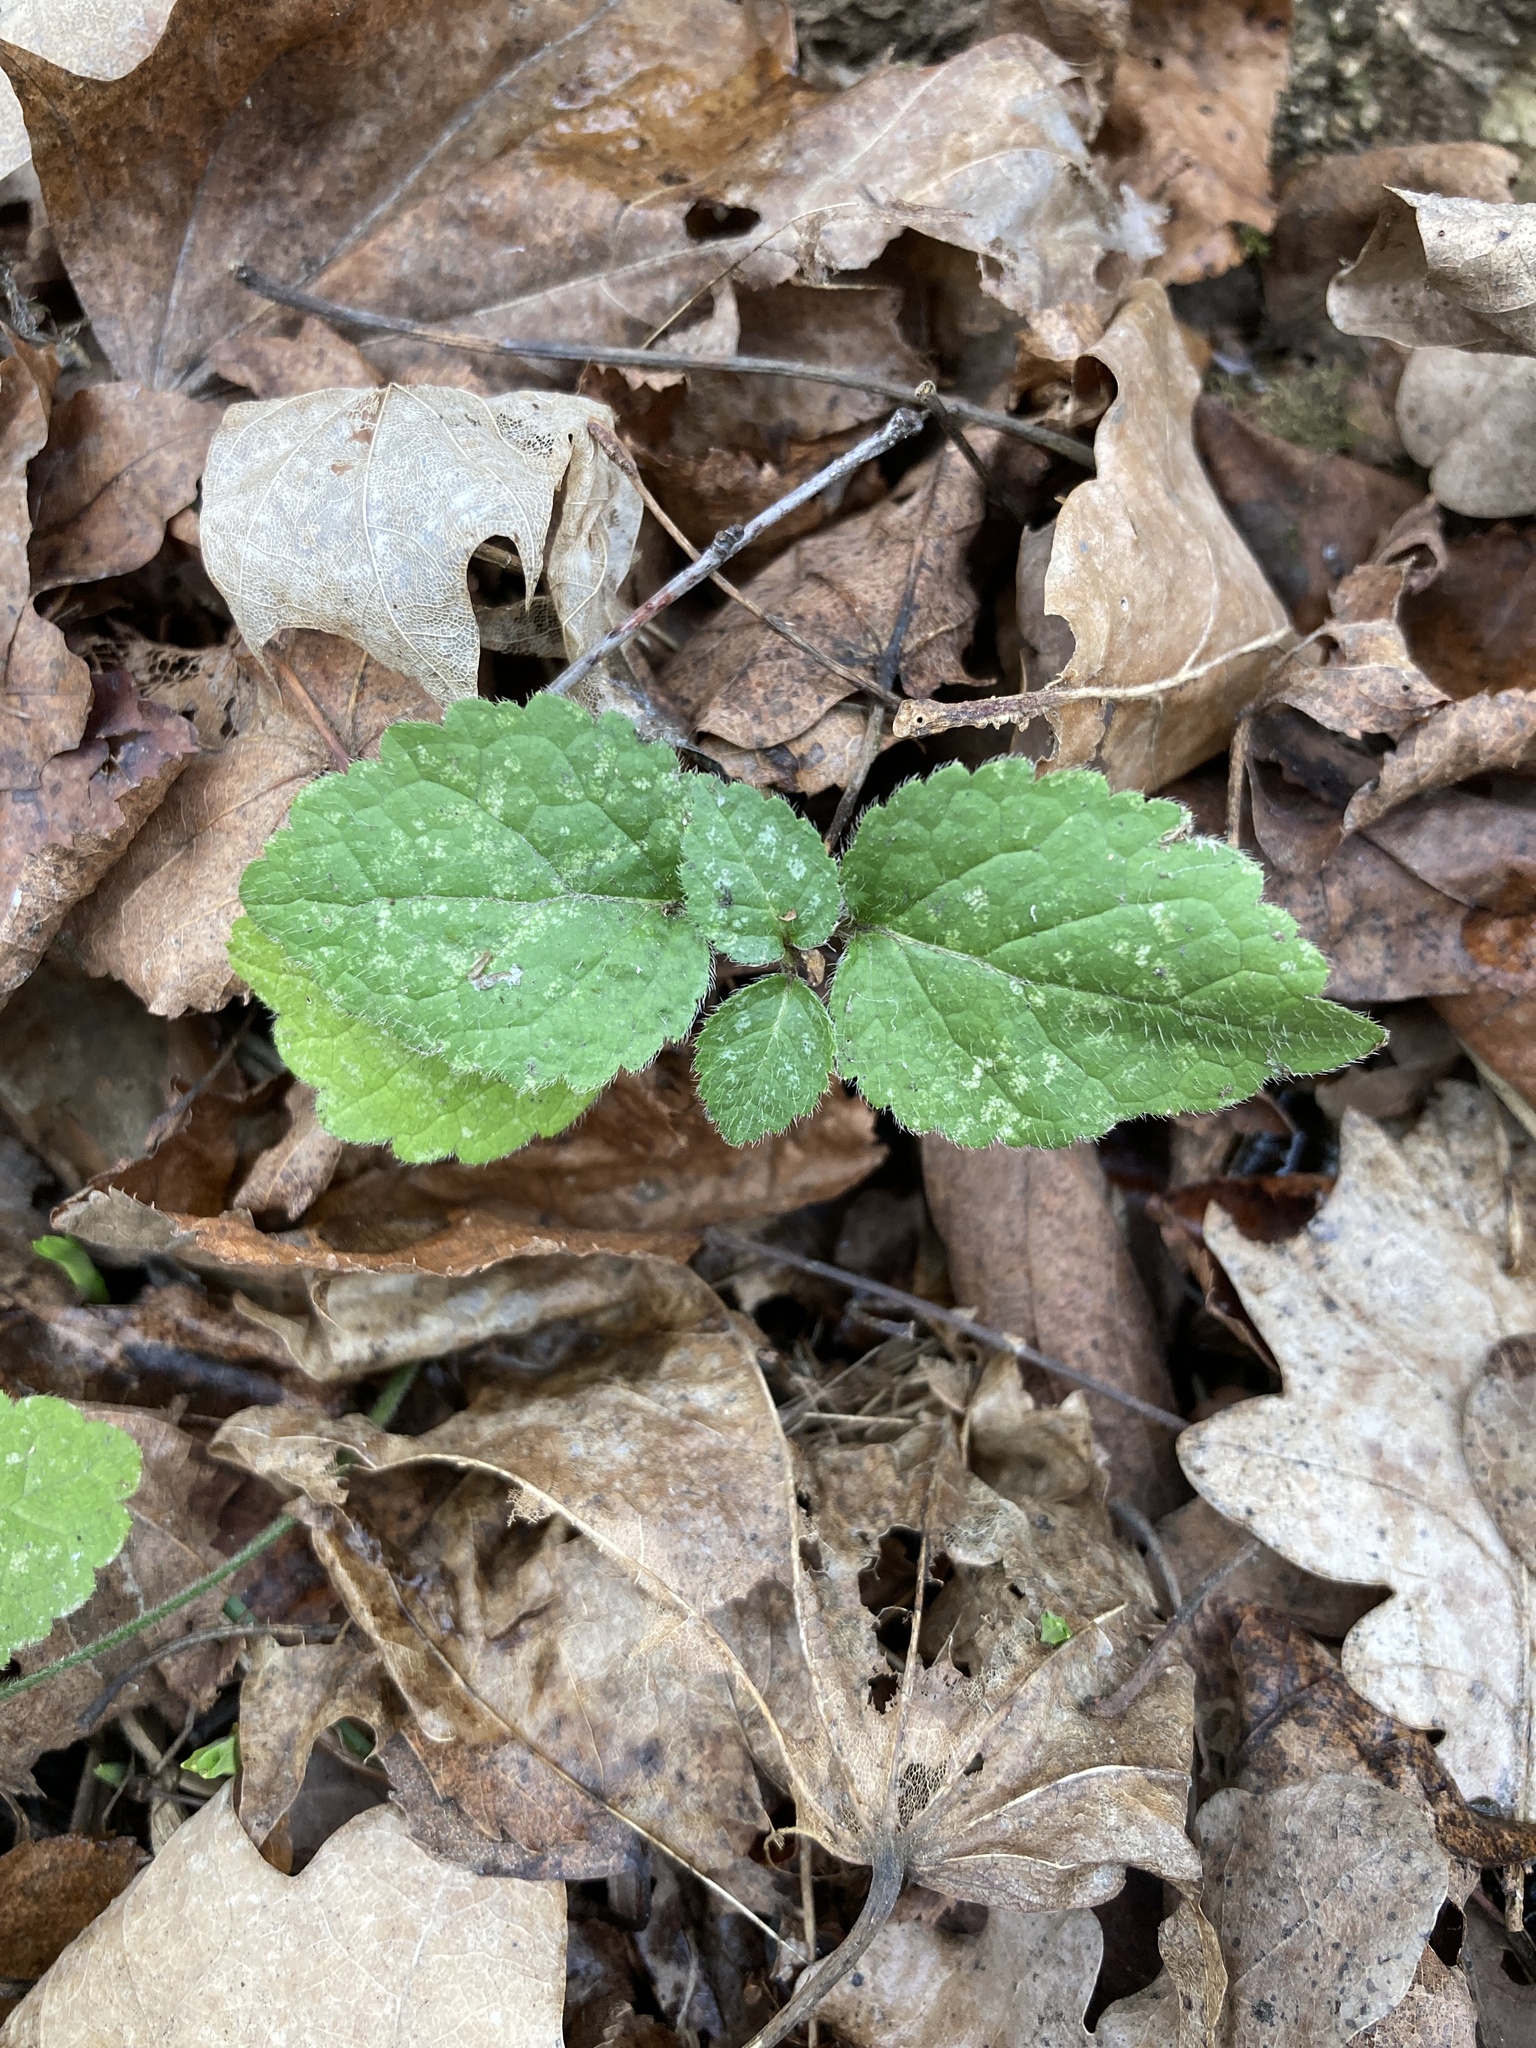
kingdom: Plantae
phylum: Tracheophyta
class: Magnoliopsida
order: Lamiales
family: Lamiaceae
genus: Lamium
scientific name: Lamium galeobdolon
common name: Yellow archangel
